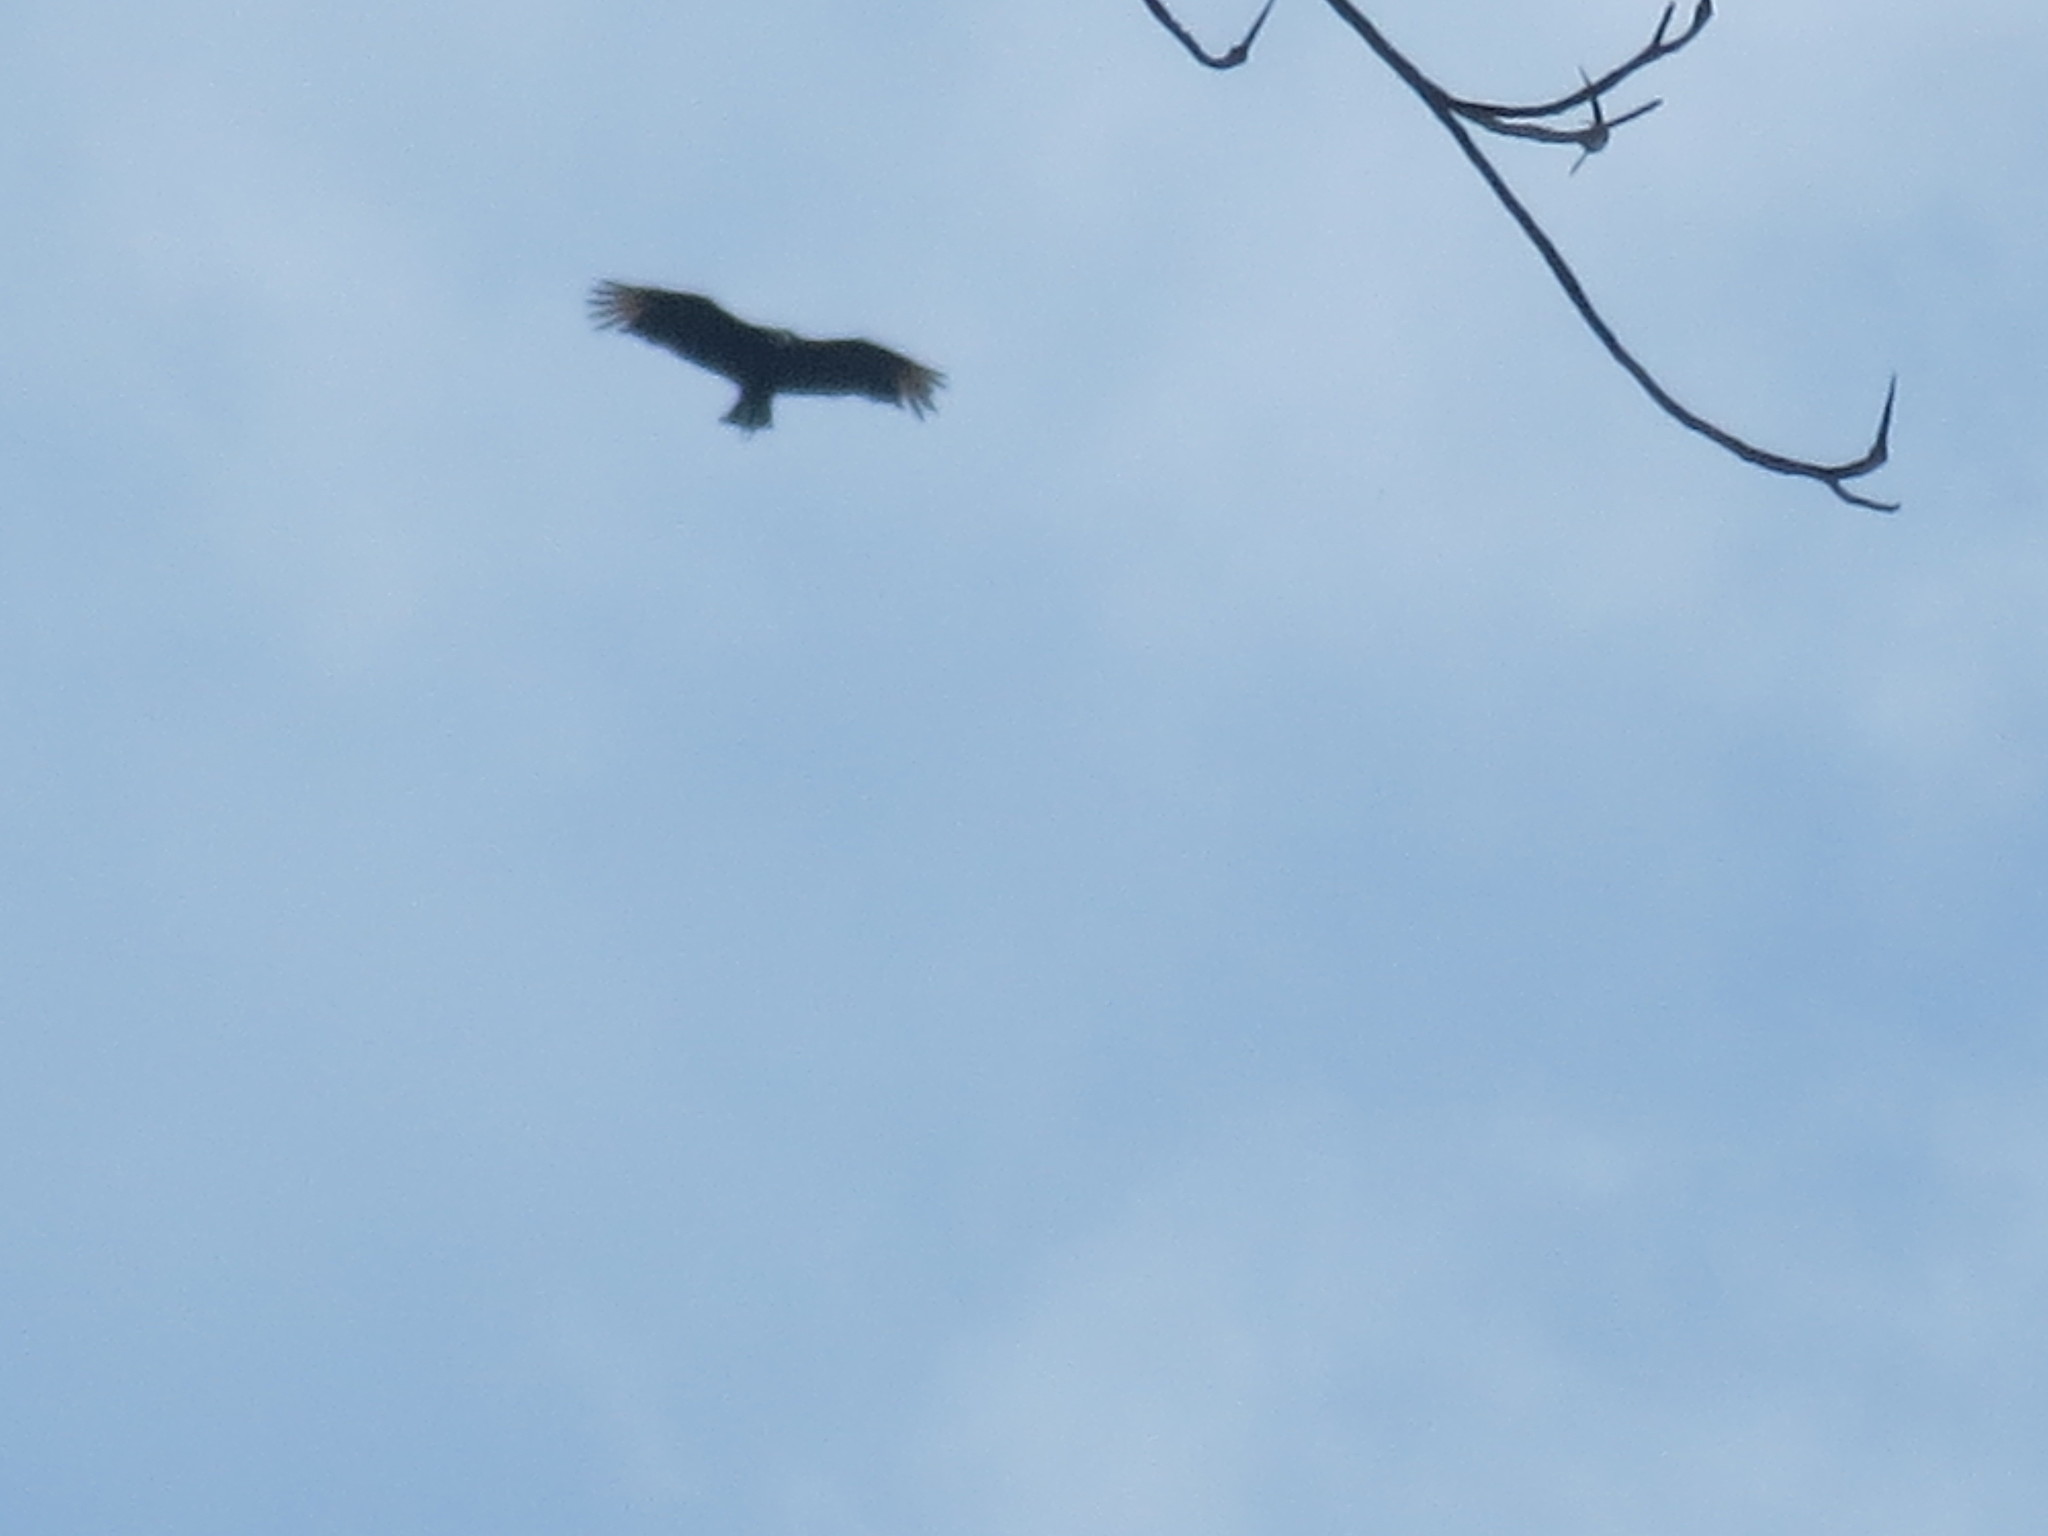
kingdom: Animalia
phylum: Chordata
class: Aves
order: Accipitriformes
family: Cathartidae
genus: Coragyps
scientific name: Coragyps atratus
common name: Black vulture
